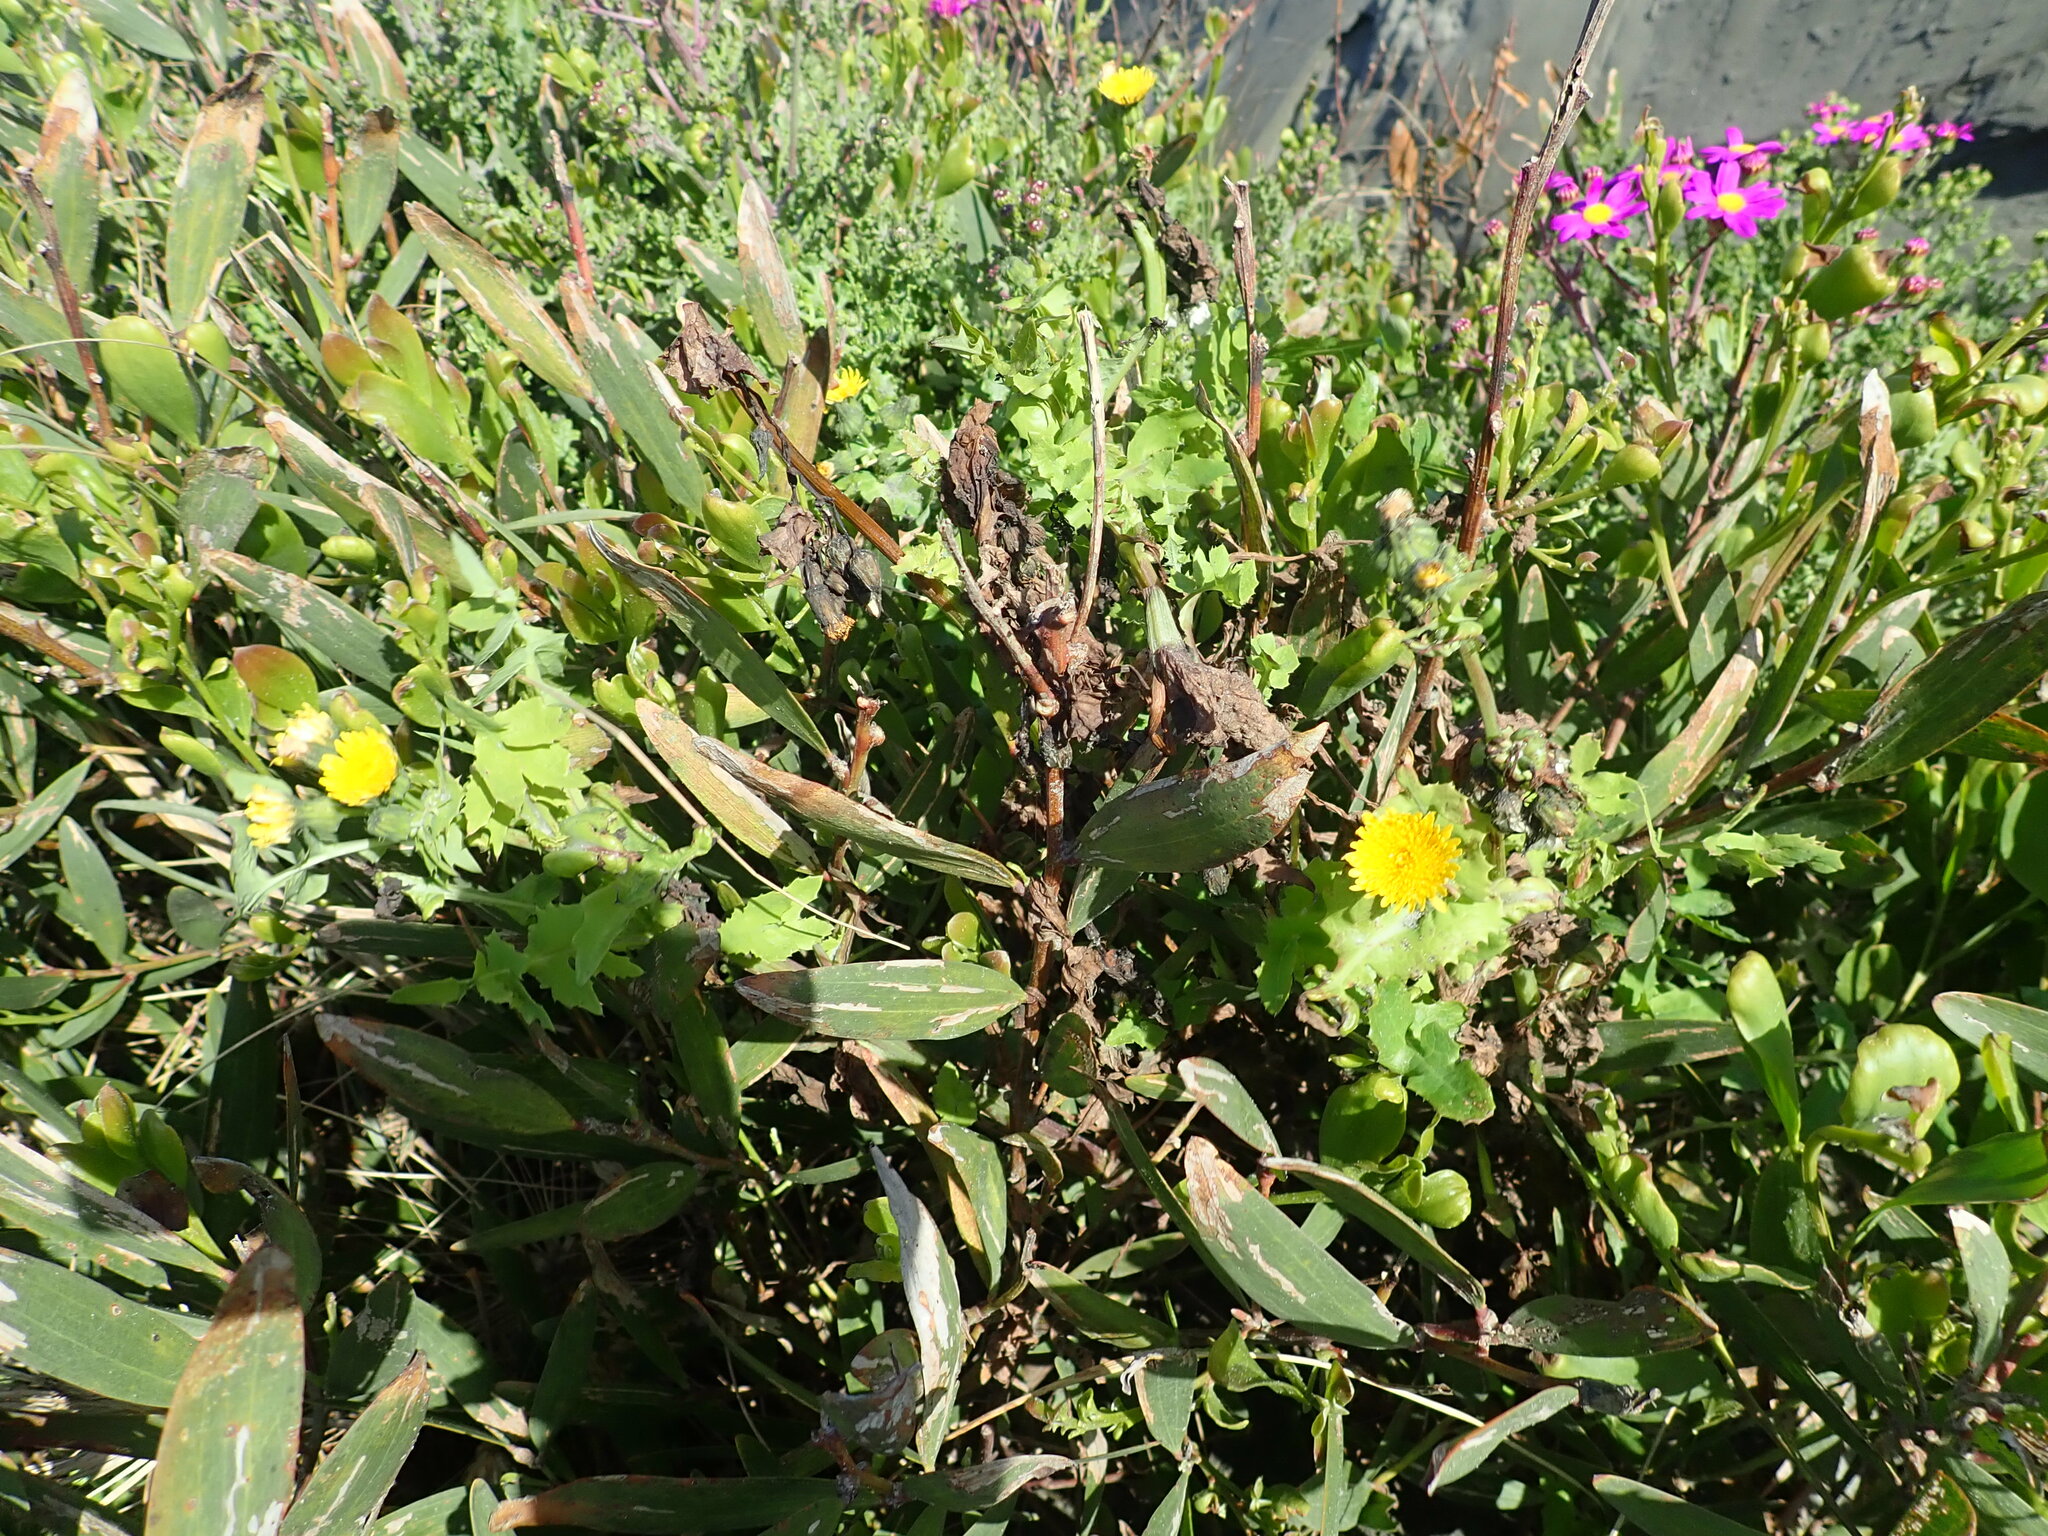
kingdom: Plantae
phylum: Tracheophyta
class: Magnoliopsida
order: Asterales
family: Asteraceae
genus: Sonchus
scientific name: Sonchus oleraceus
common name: Common sowthistle
